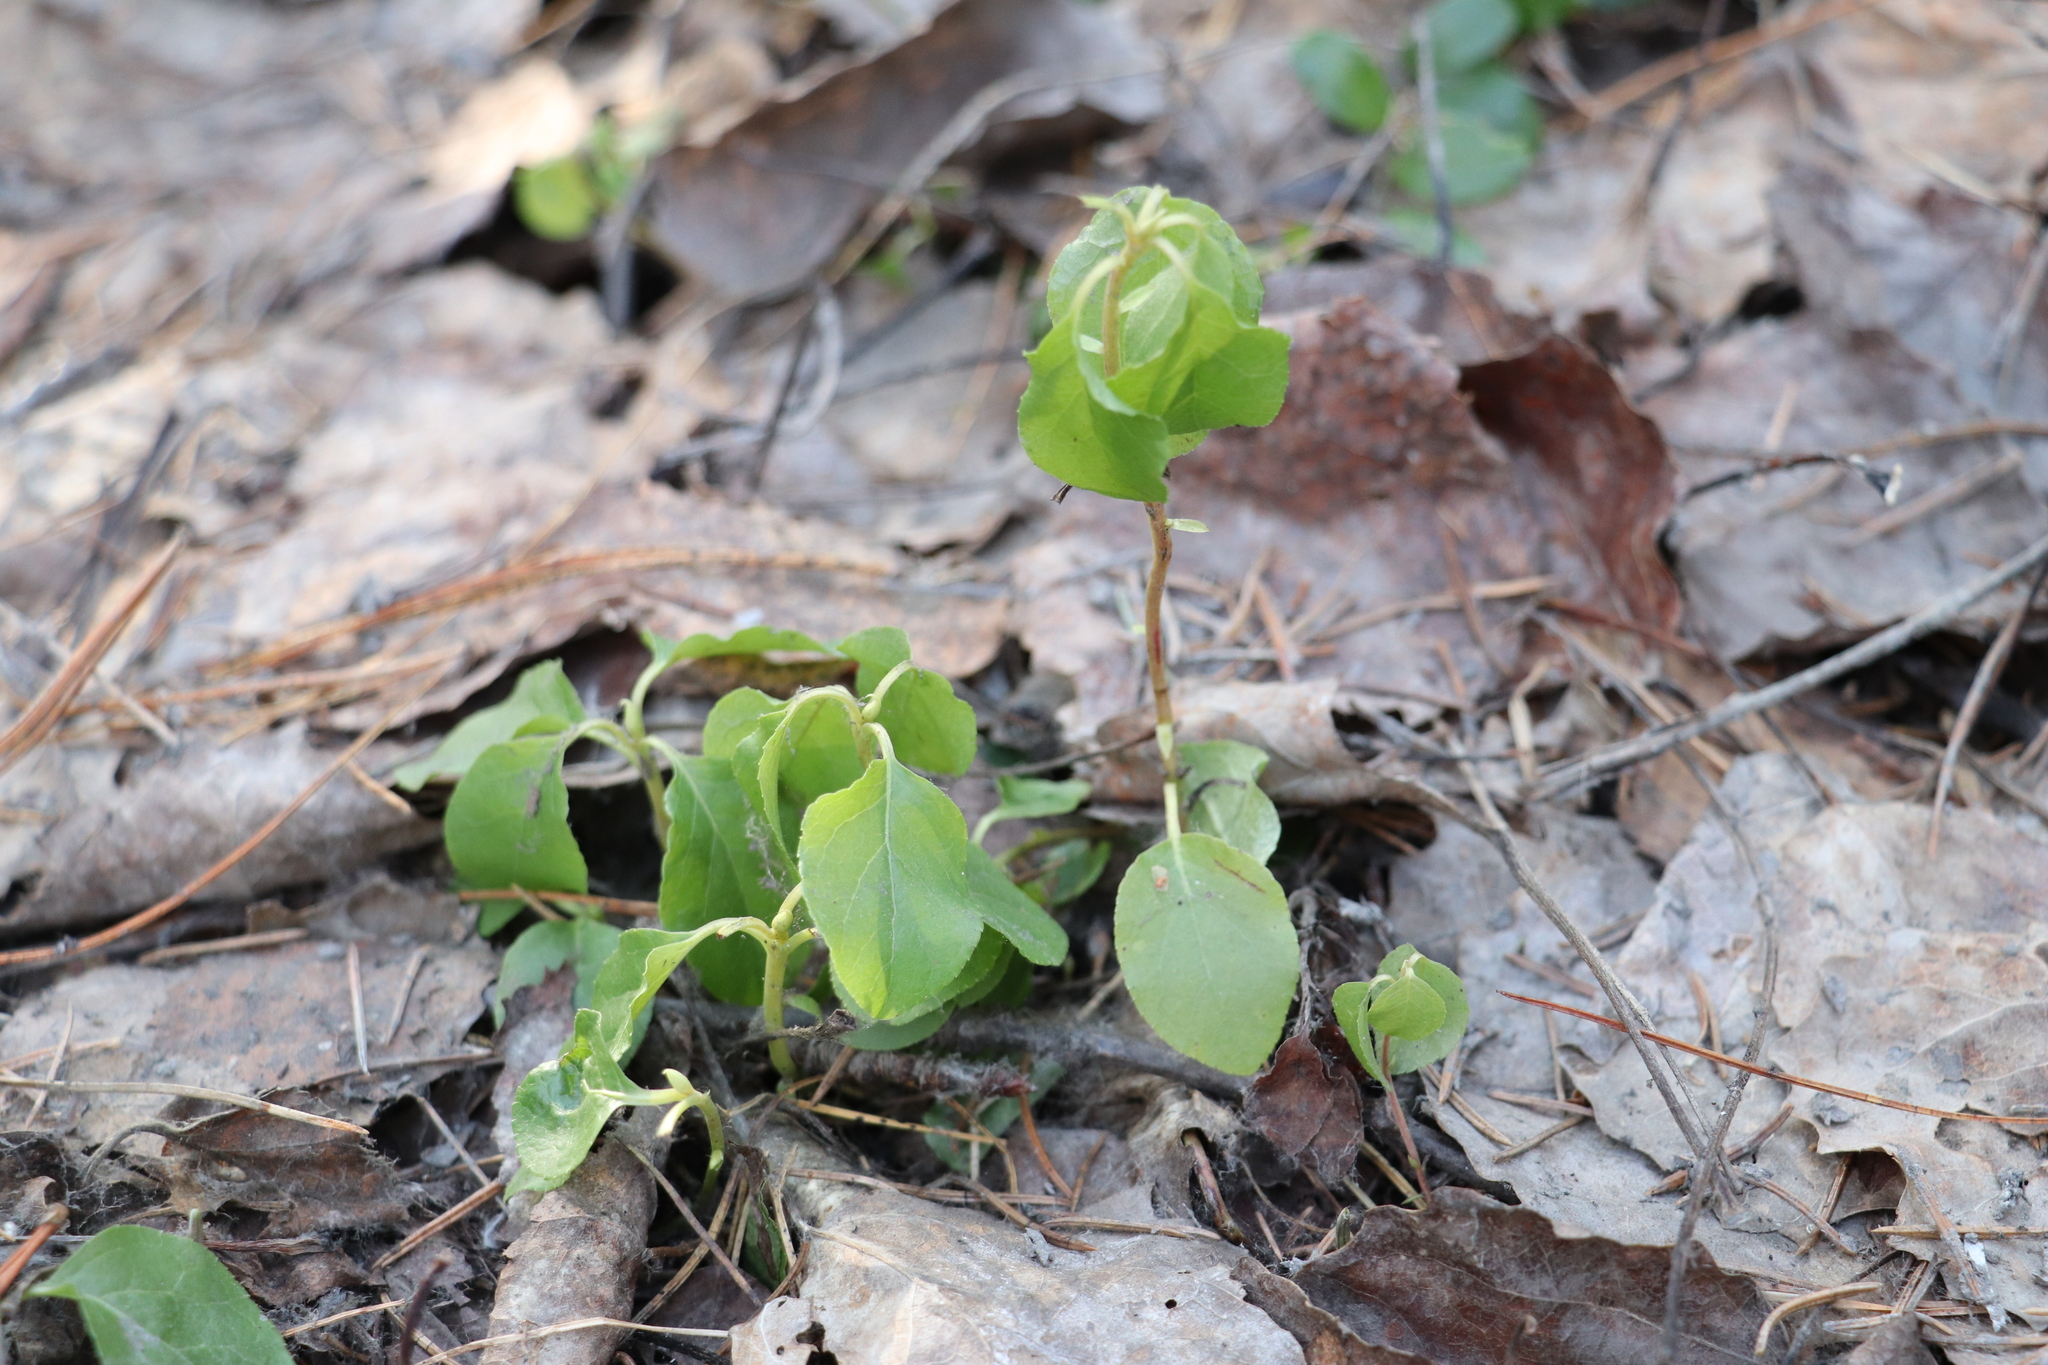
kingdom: Plantae
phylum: Tracheophyta
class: Magnoliopsida
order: Ericales
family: Ericaceae
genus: Orthilia
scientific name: Orthilia secunda
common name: One-sided orthilia
